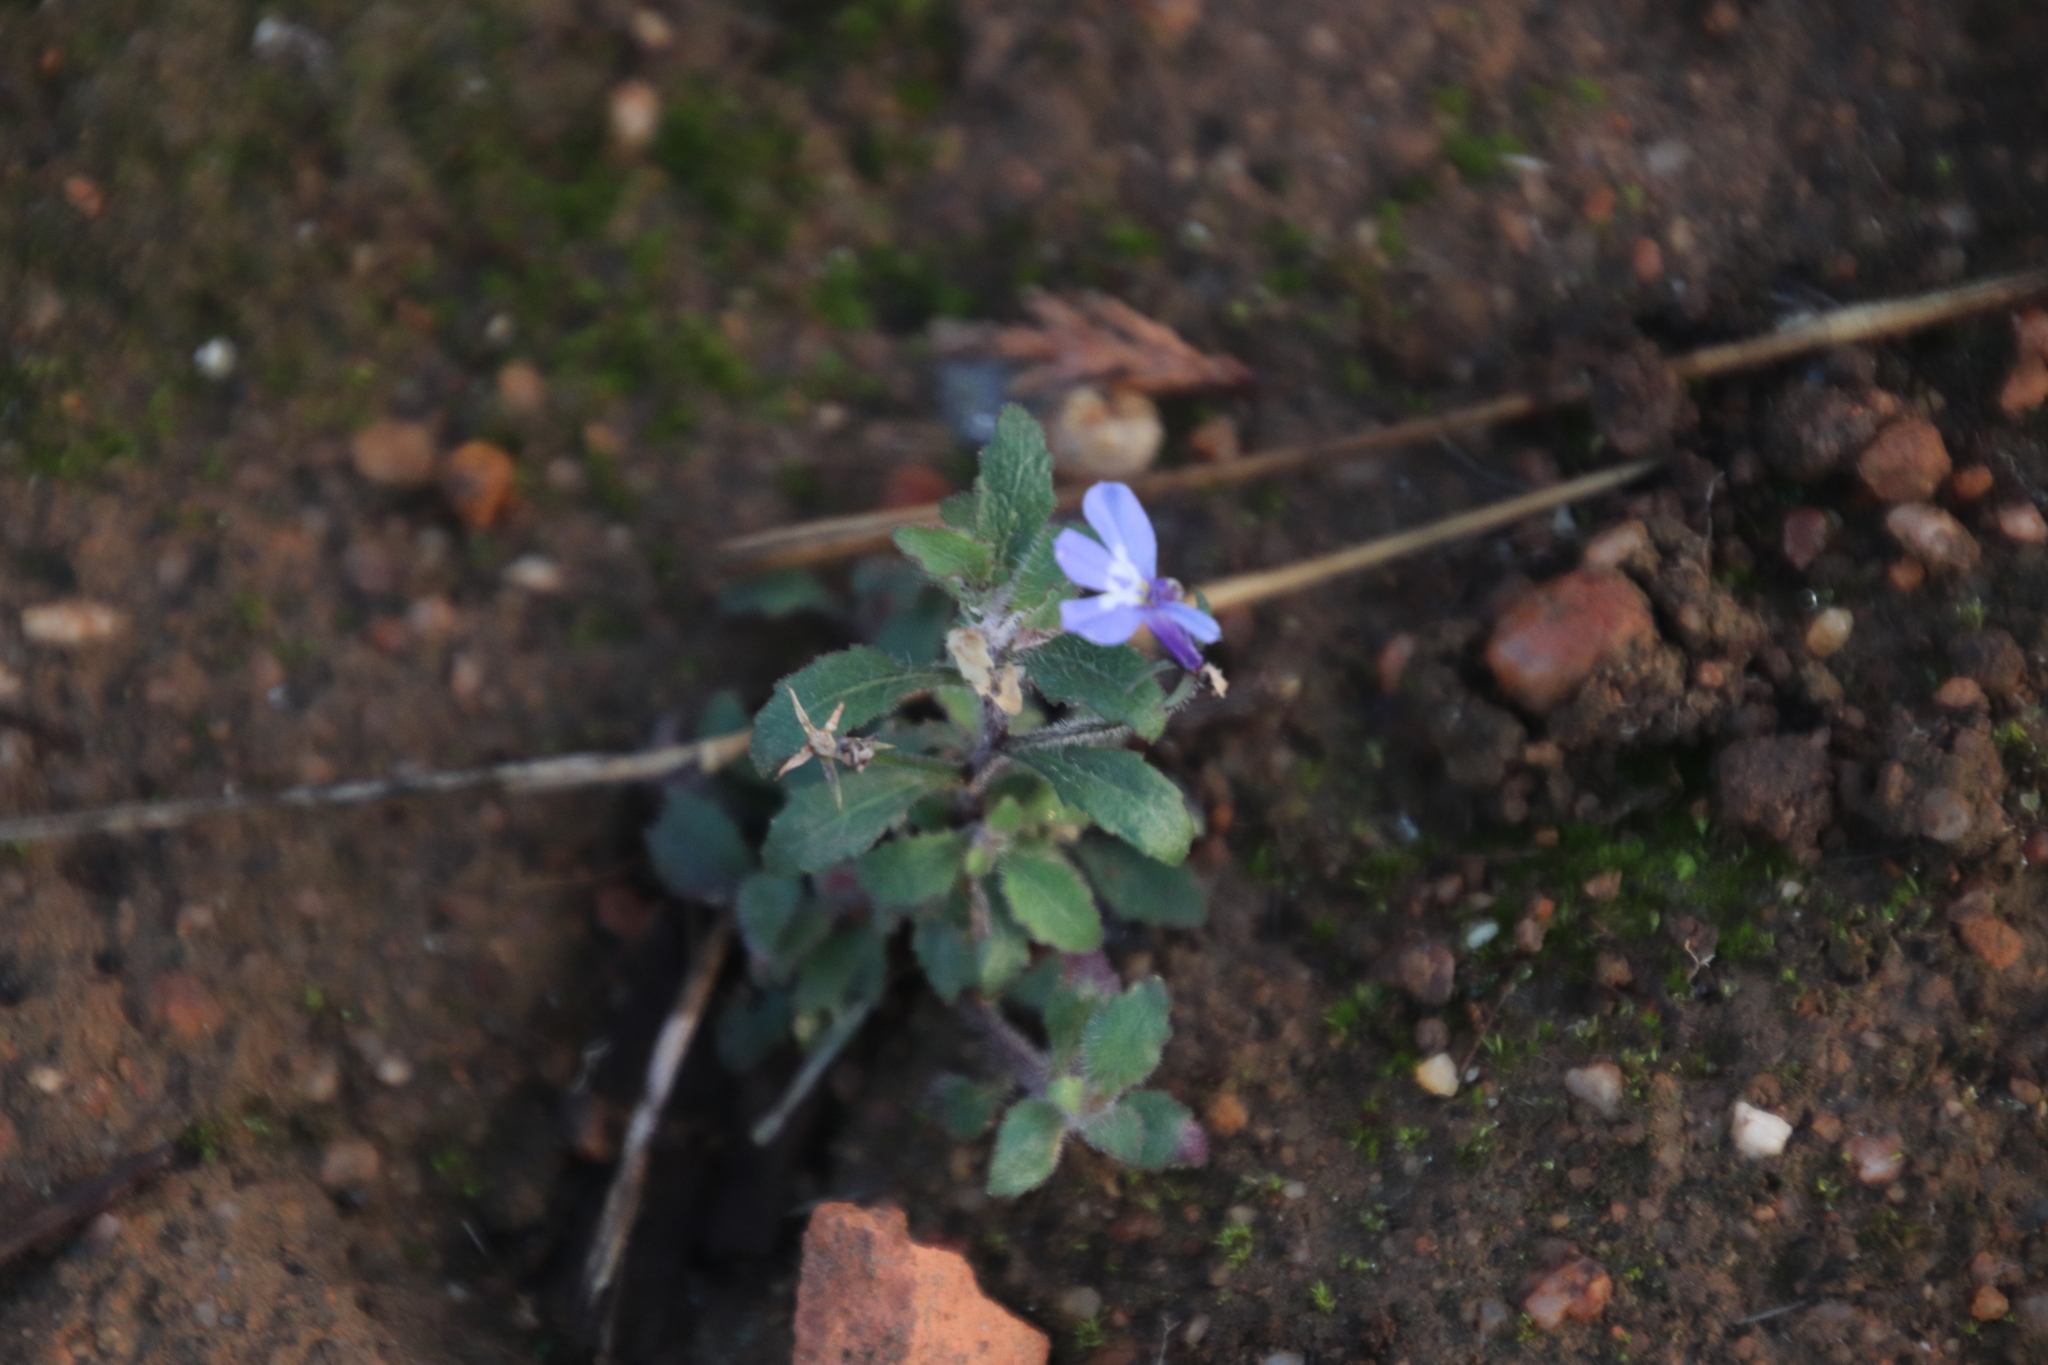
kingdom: Plantae
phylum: Tracheophyta
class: Magnoliopsida
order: Asterales
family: Campanulaceae
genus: Lobelia
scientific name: Lobelia erinus
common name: Edging lobelia
